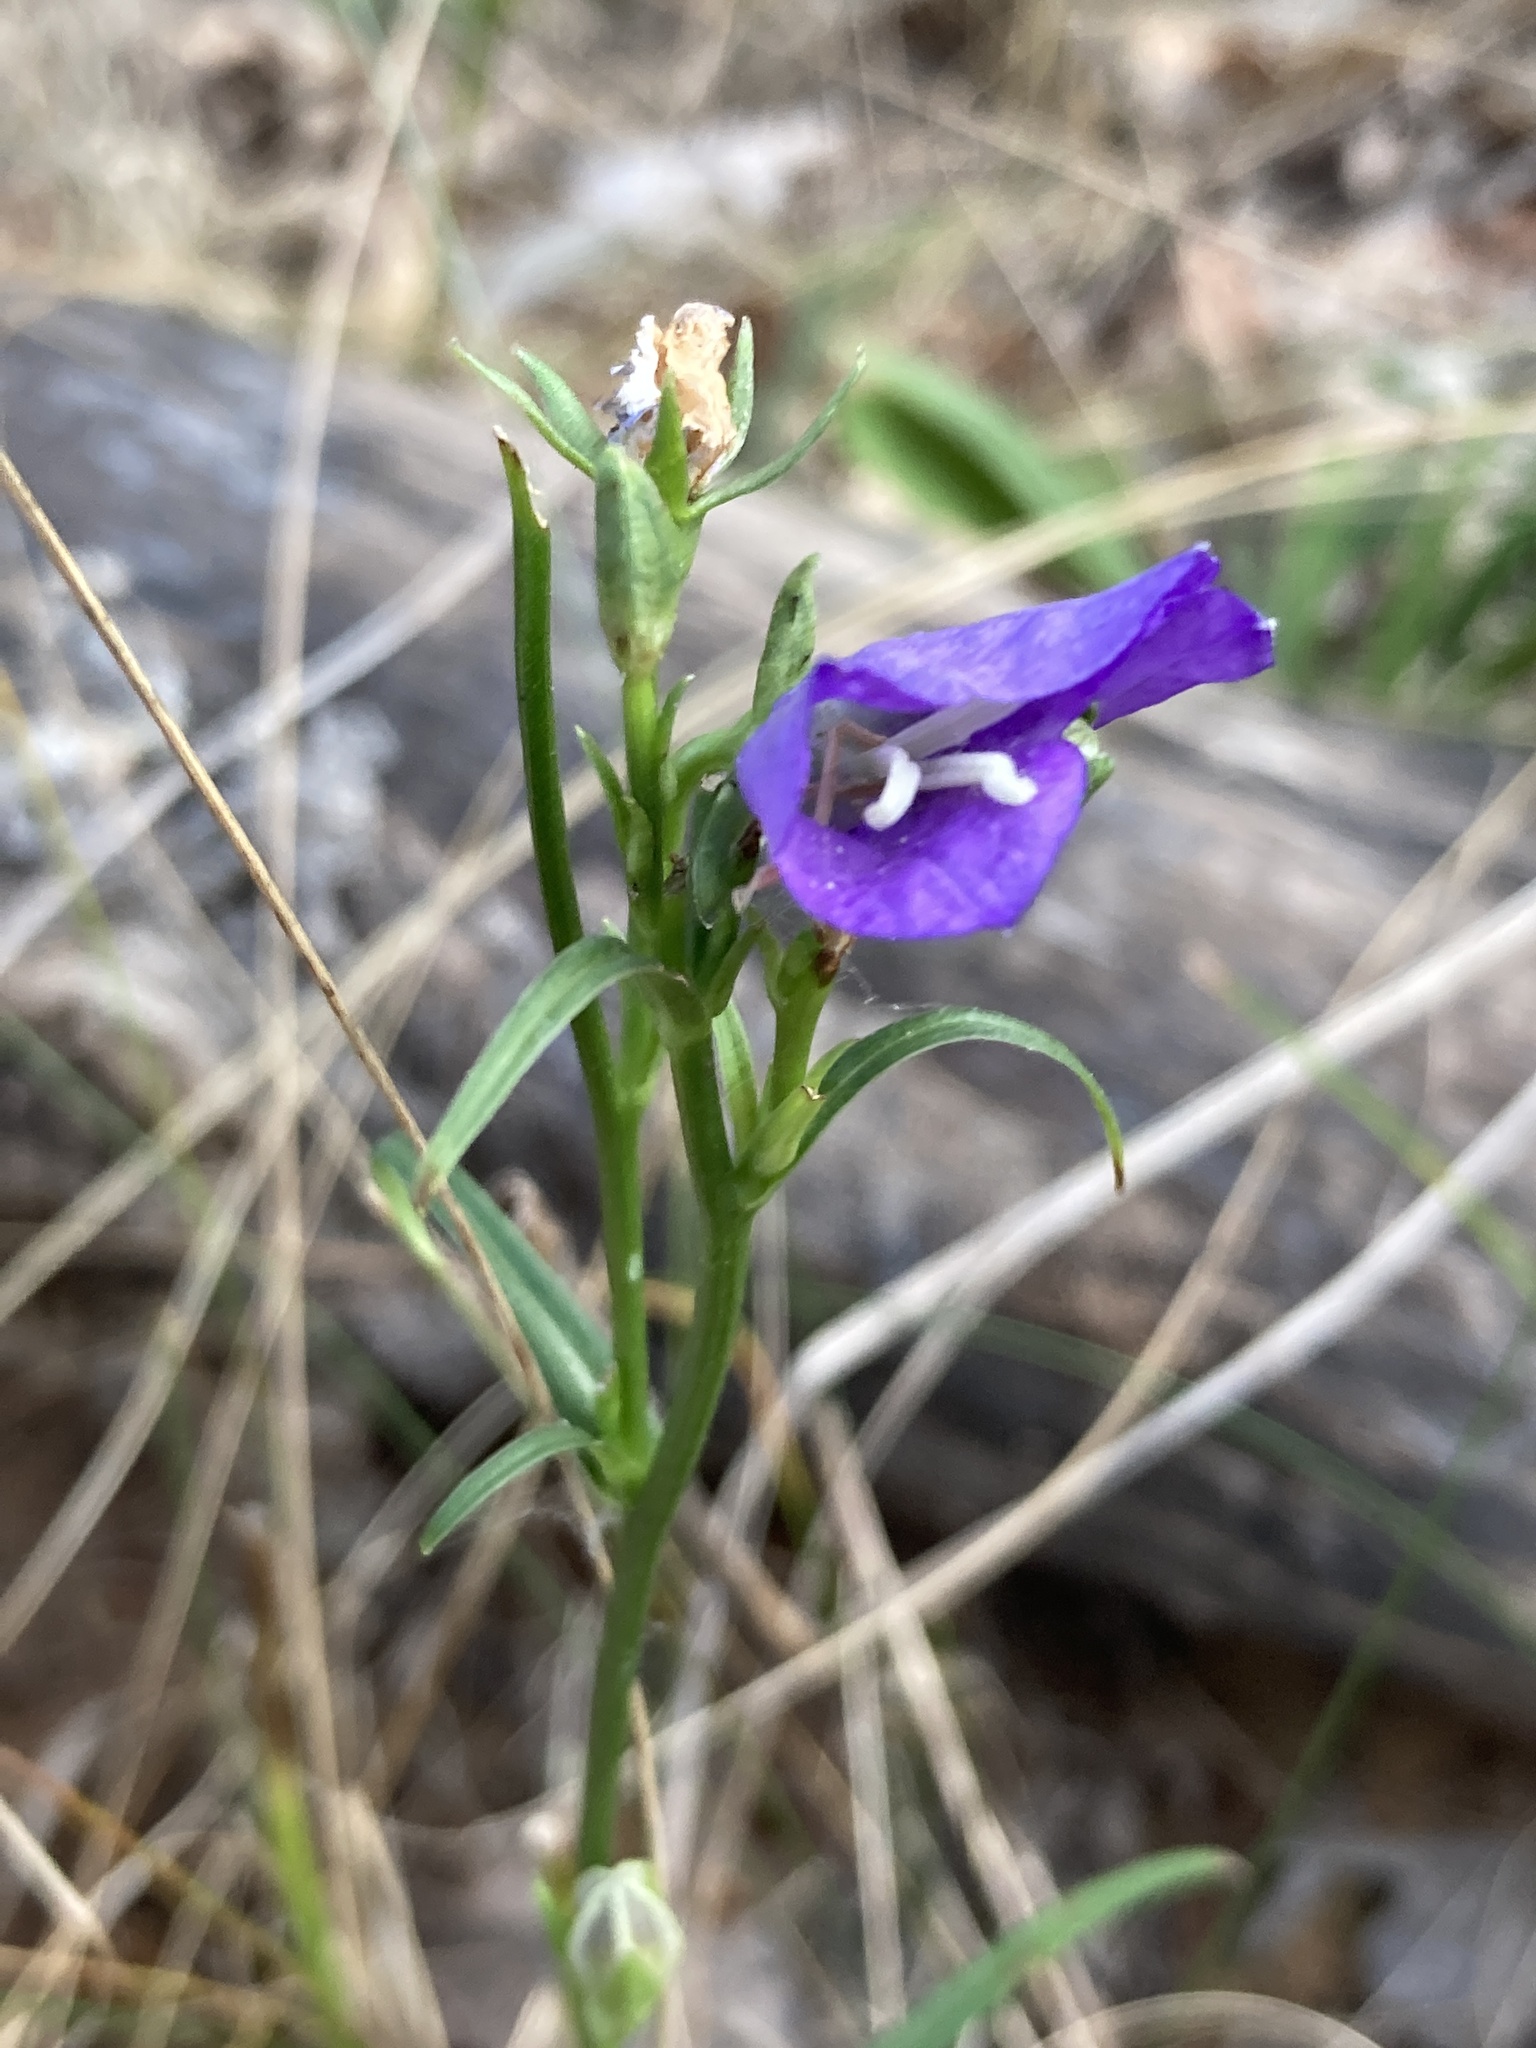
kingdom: Plantae
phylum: Tracheophyta
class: Magnoliopsida
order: Asterales
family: Campanulaceae
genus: Campanula
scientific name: Campanula persicifolia
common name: Peach-leaved bellflower
